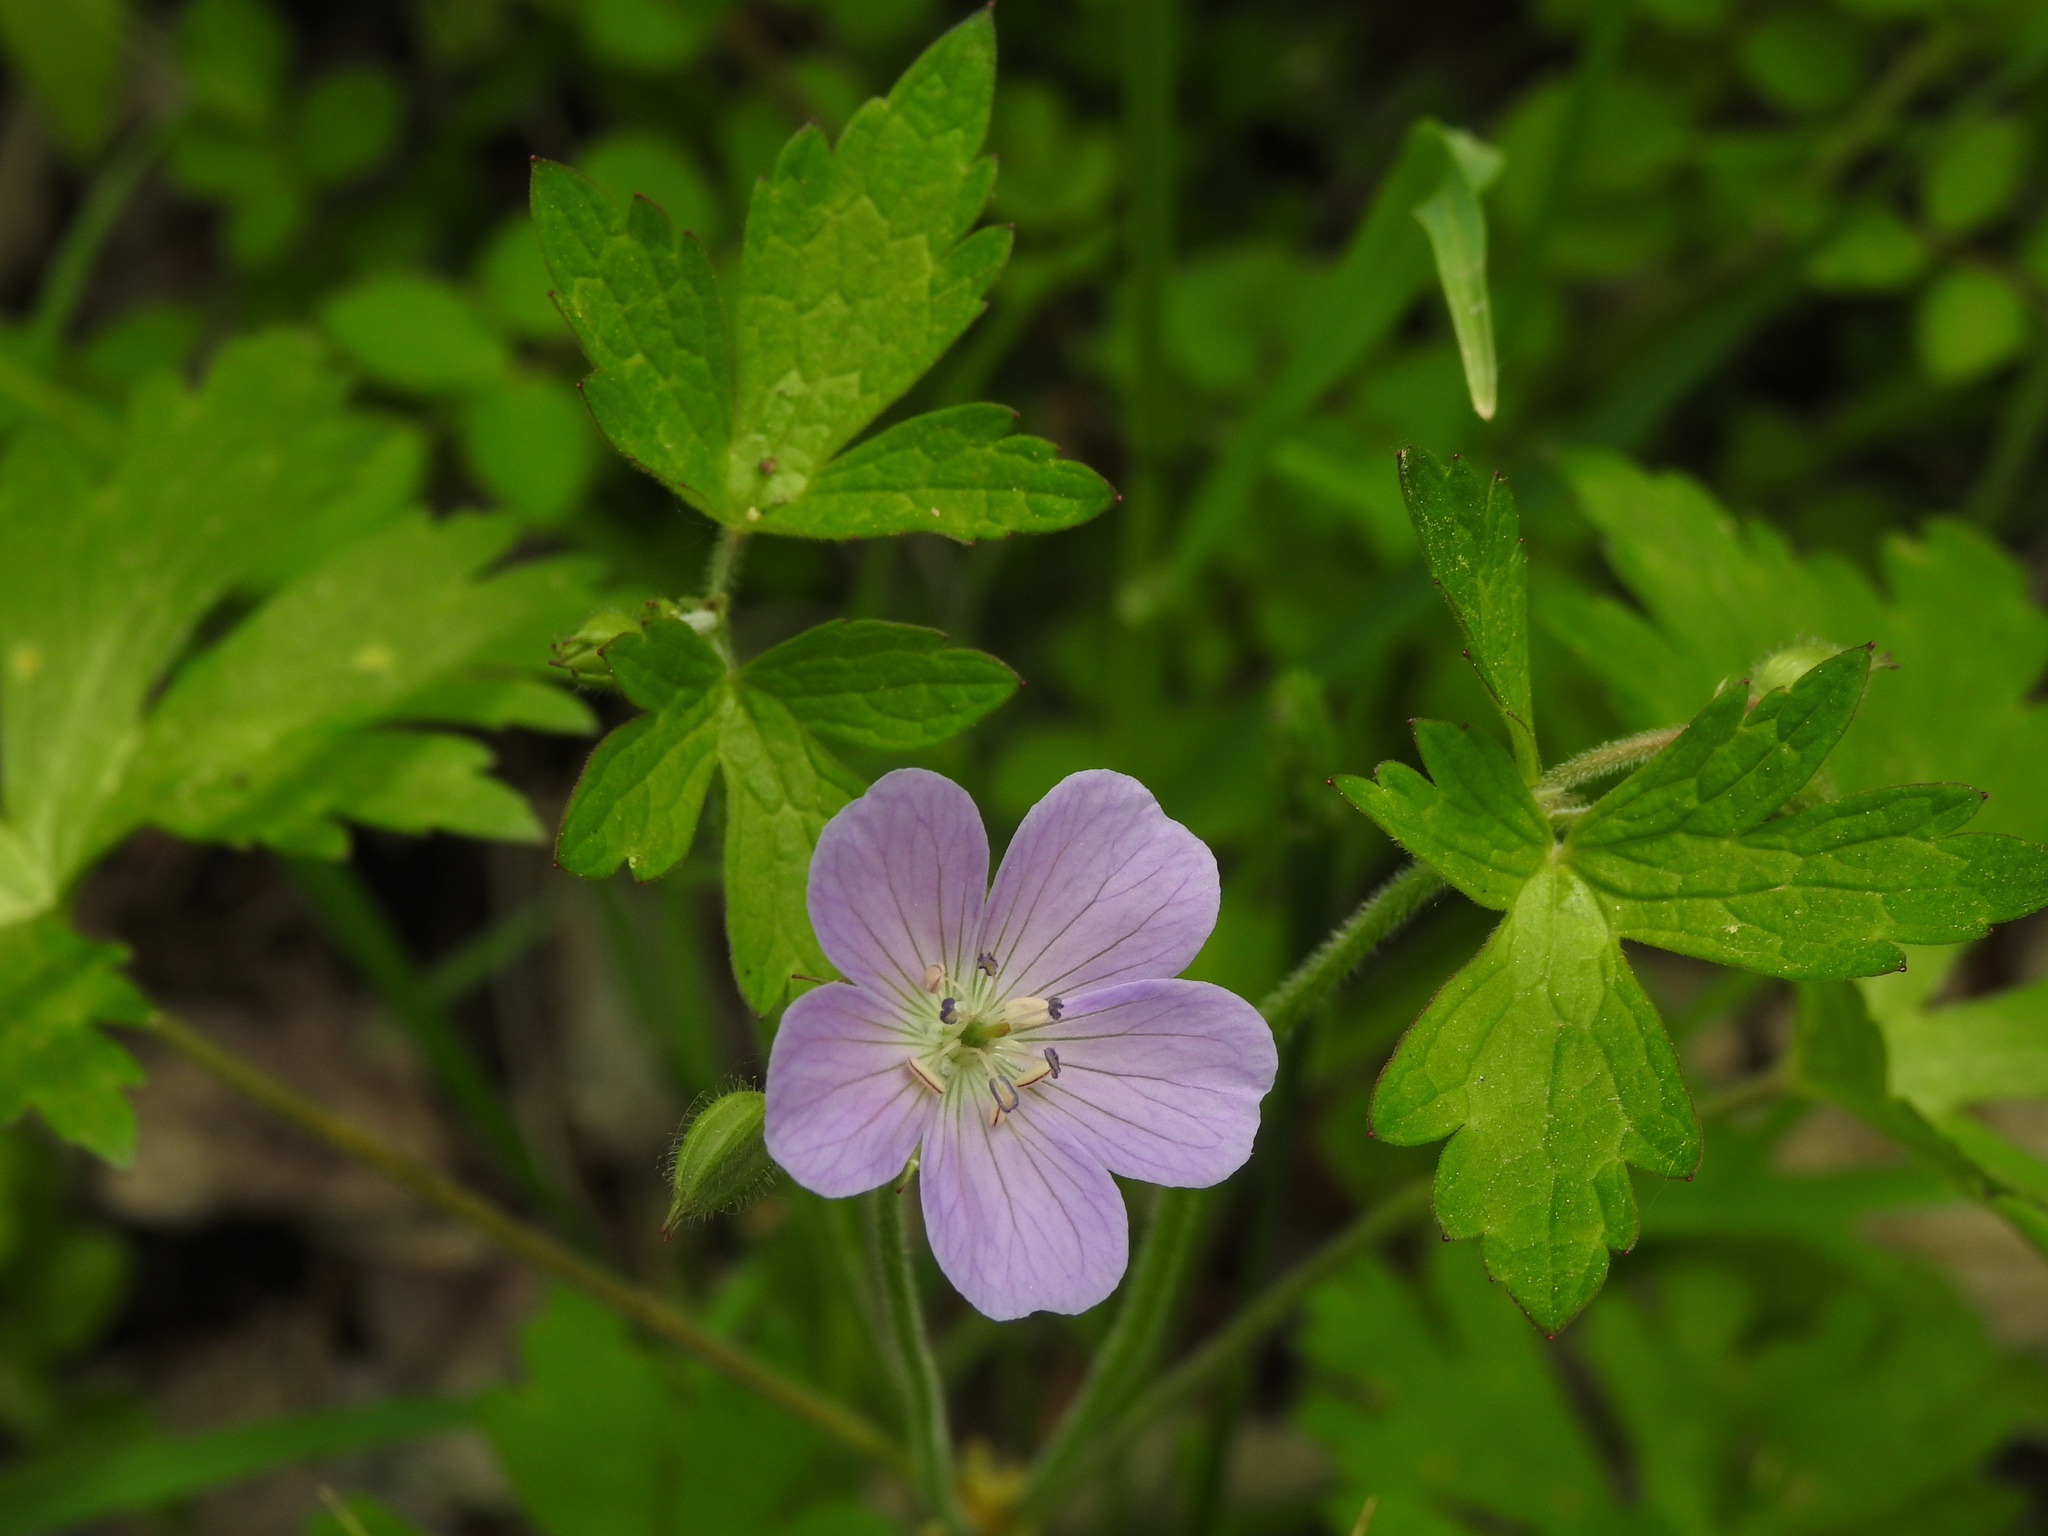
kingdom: Plantae
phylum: Tracheophyta
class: Magnoliopsida
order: Geraniales
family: Geraniaceae
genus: Geranium
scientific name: Geranium maculatum
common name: Spotted geranium
